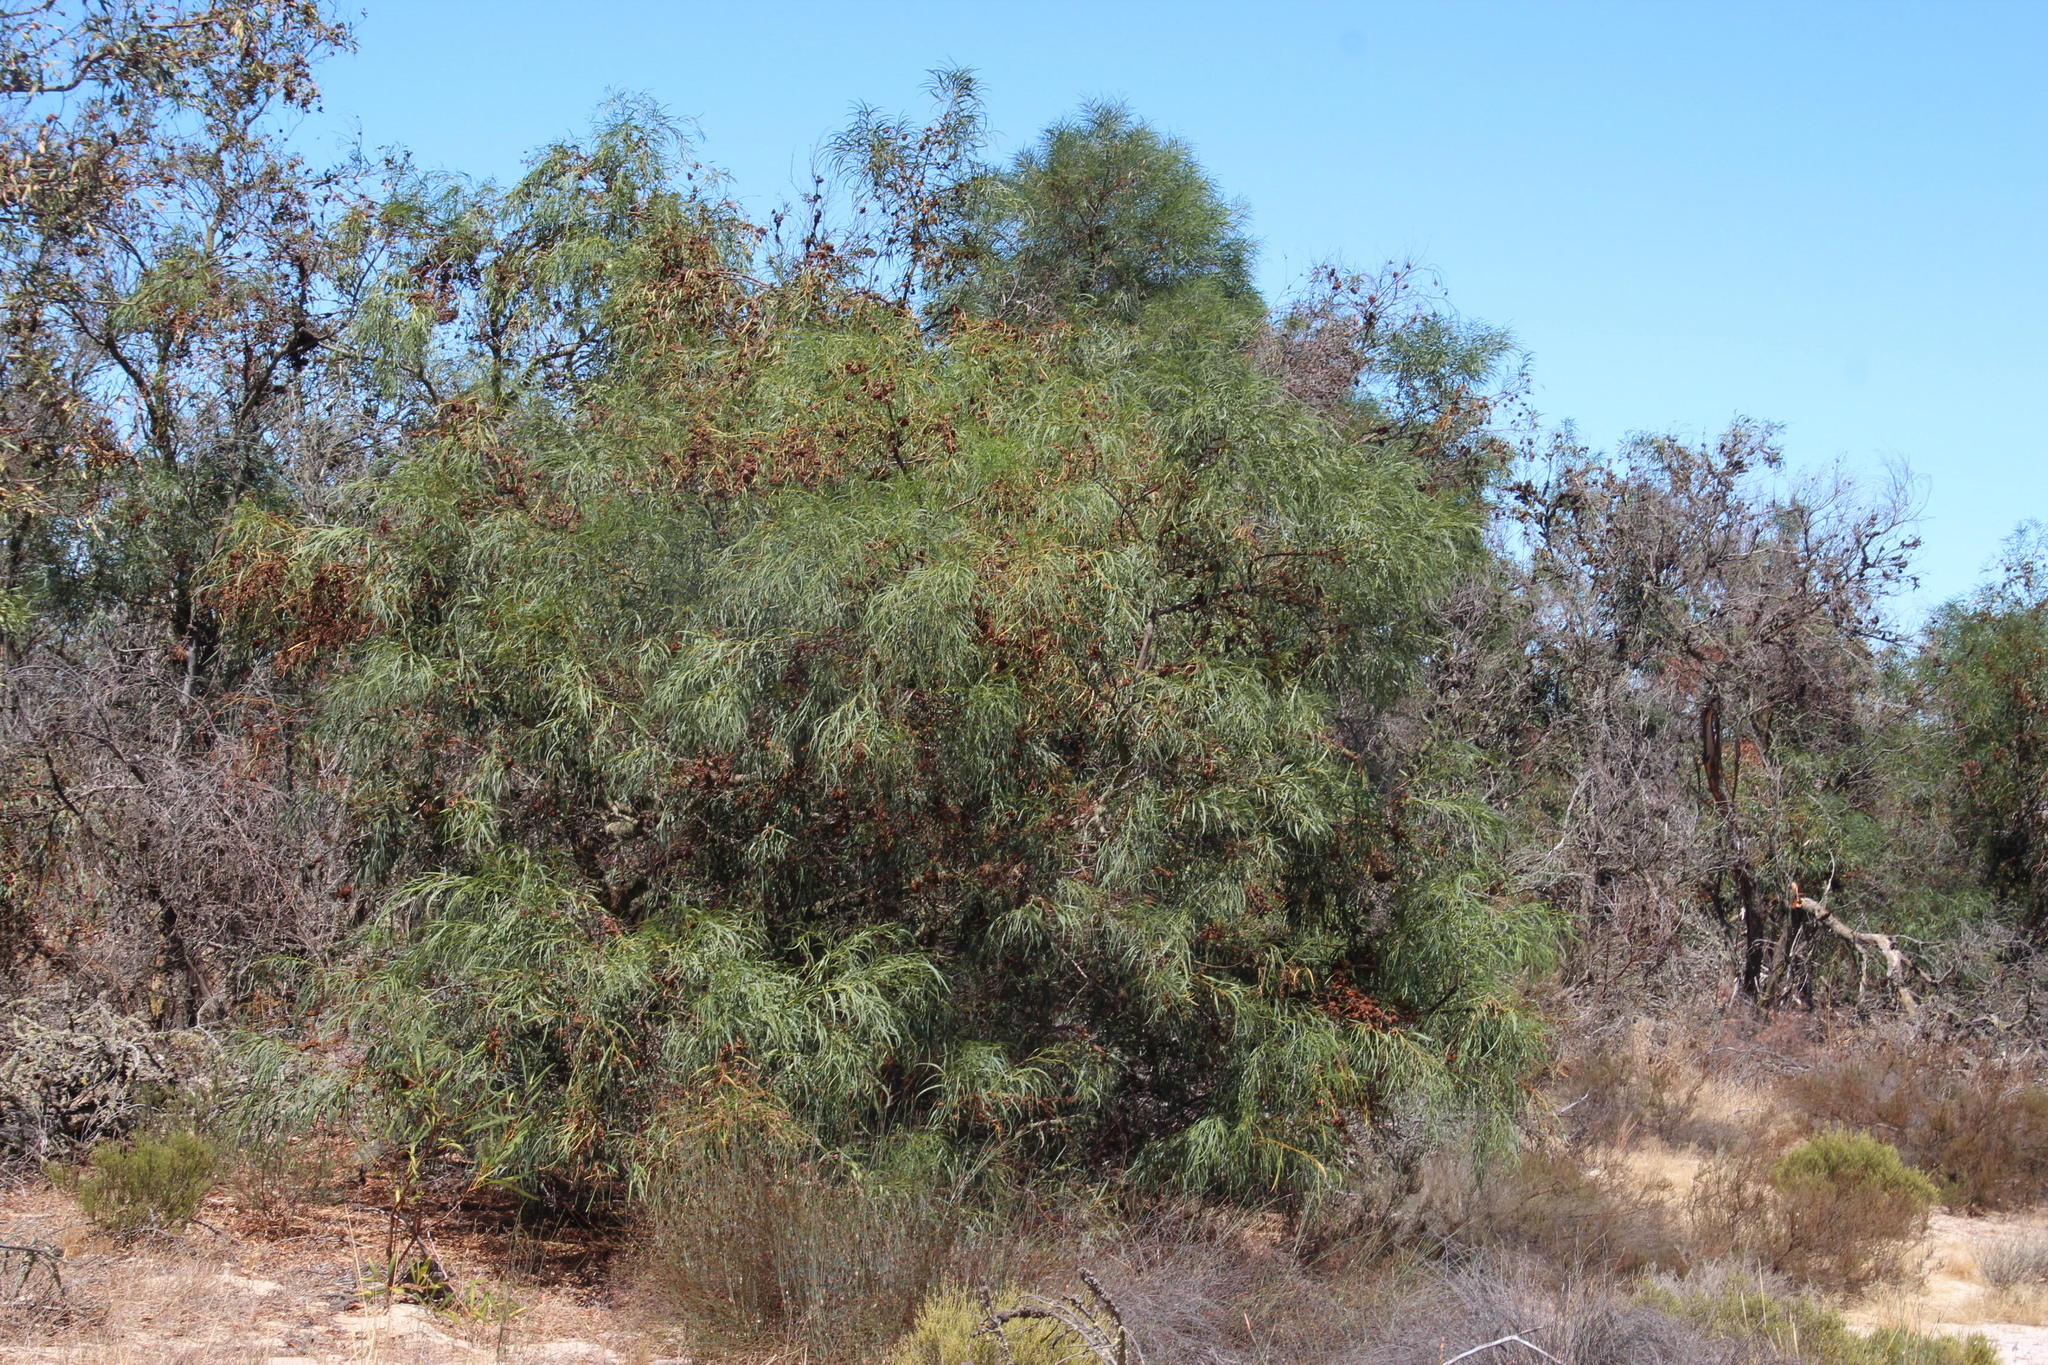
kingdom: Plantae
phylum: Tracheophyta
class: Magnoliopsida
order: Fabales
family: Fabaceae
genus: Acacia
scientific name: Acacia saligna
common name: Orange wattle
